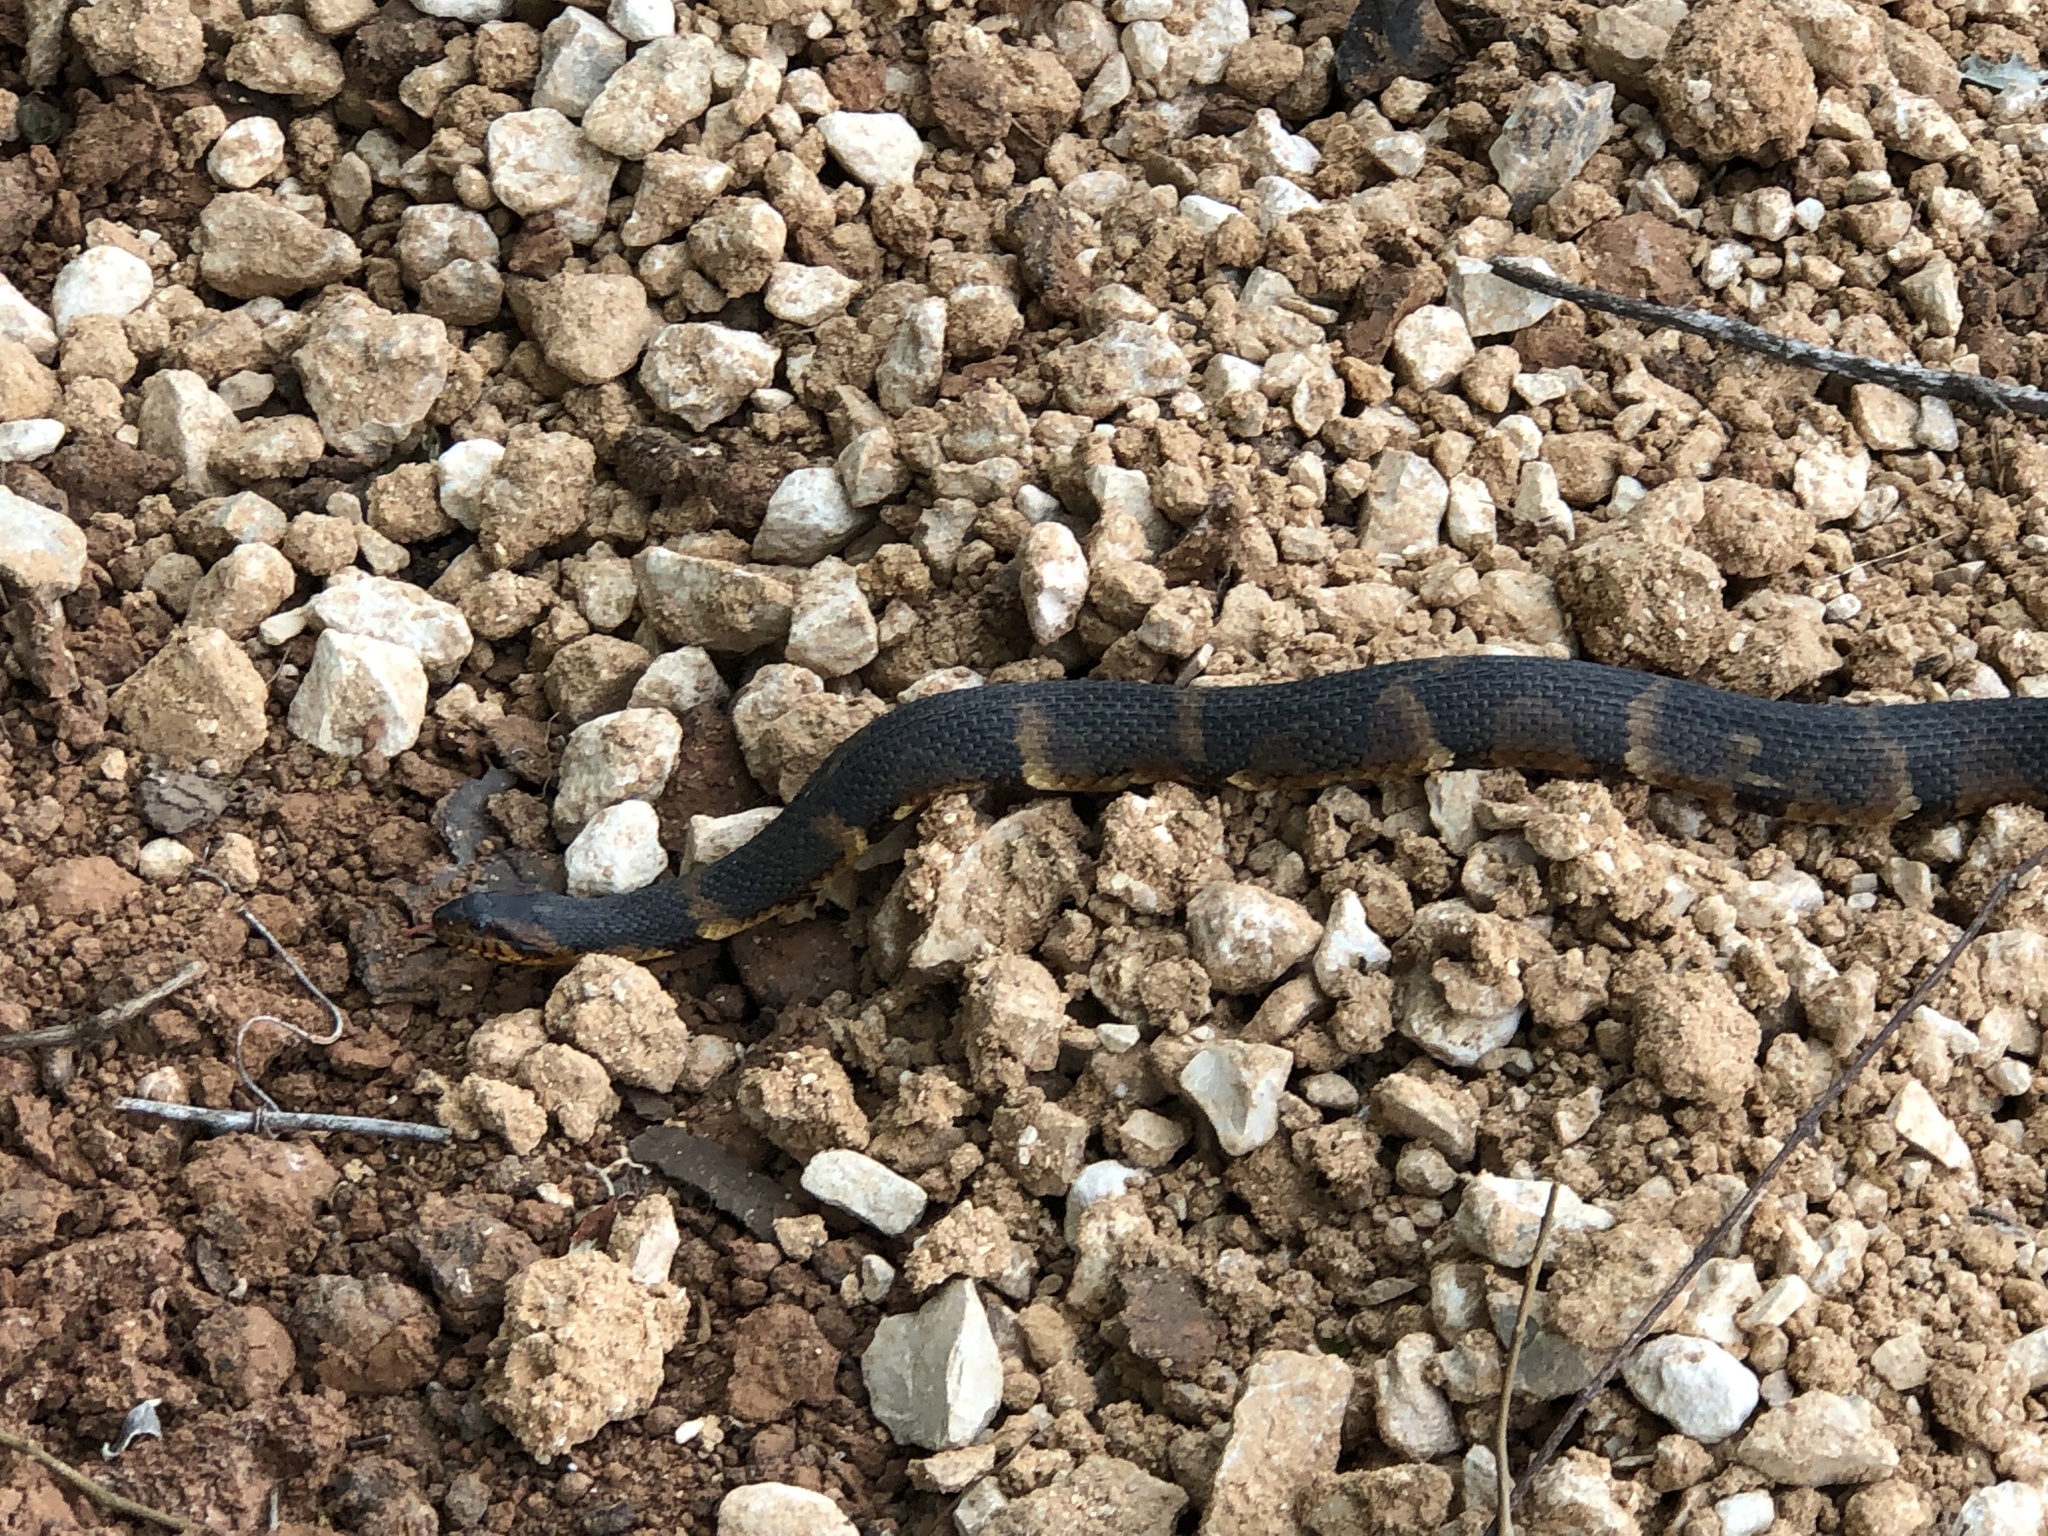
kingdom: Animalia
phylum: Chordata
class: Squamata
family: Colubridae
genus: Nerodia
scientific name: Nerodia fasciata
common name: Southern water snake
